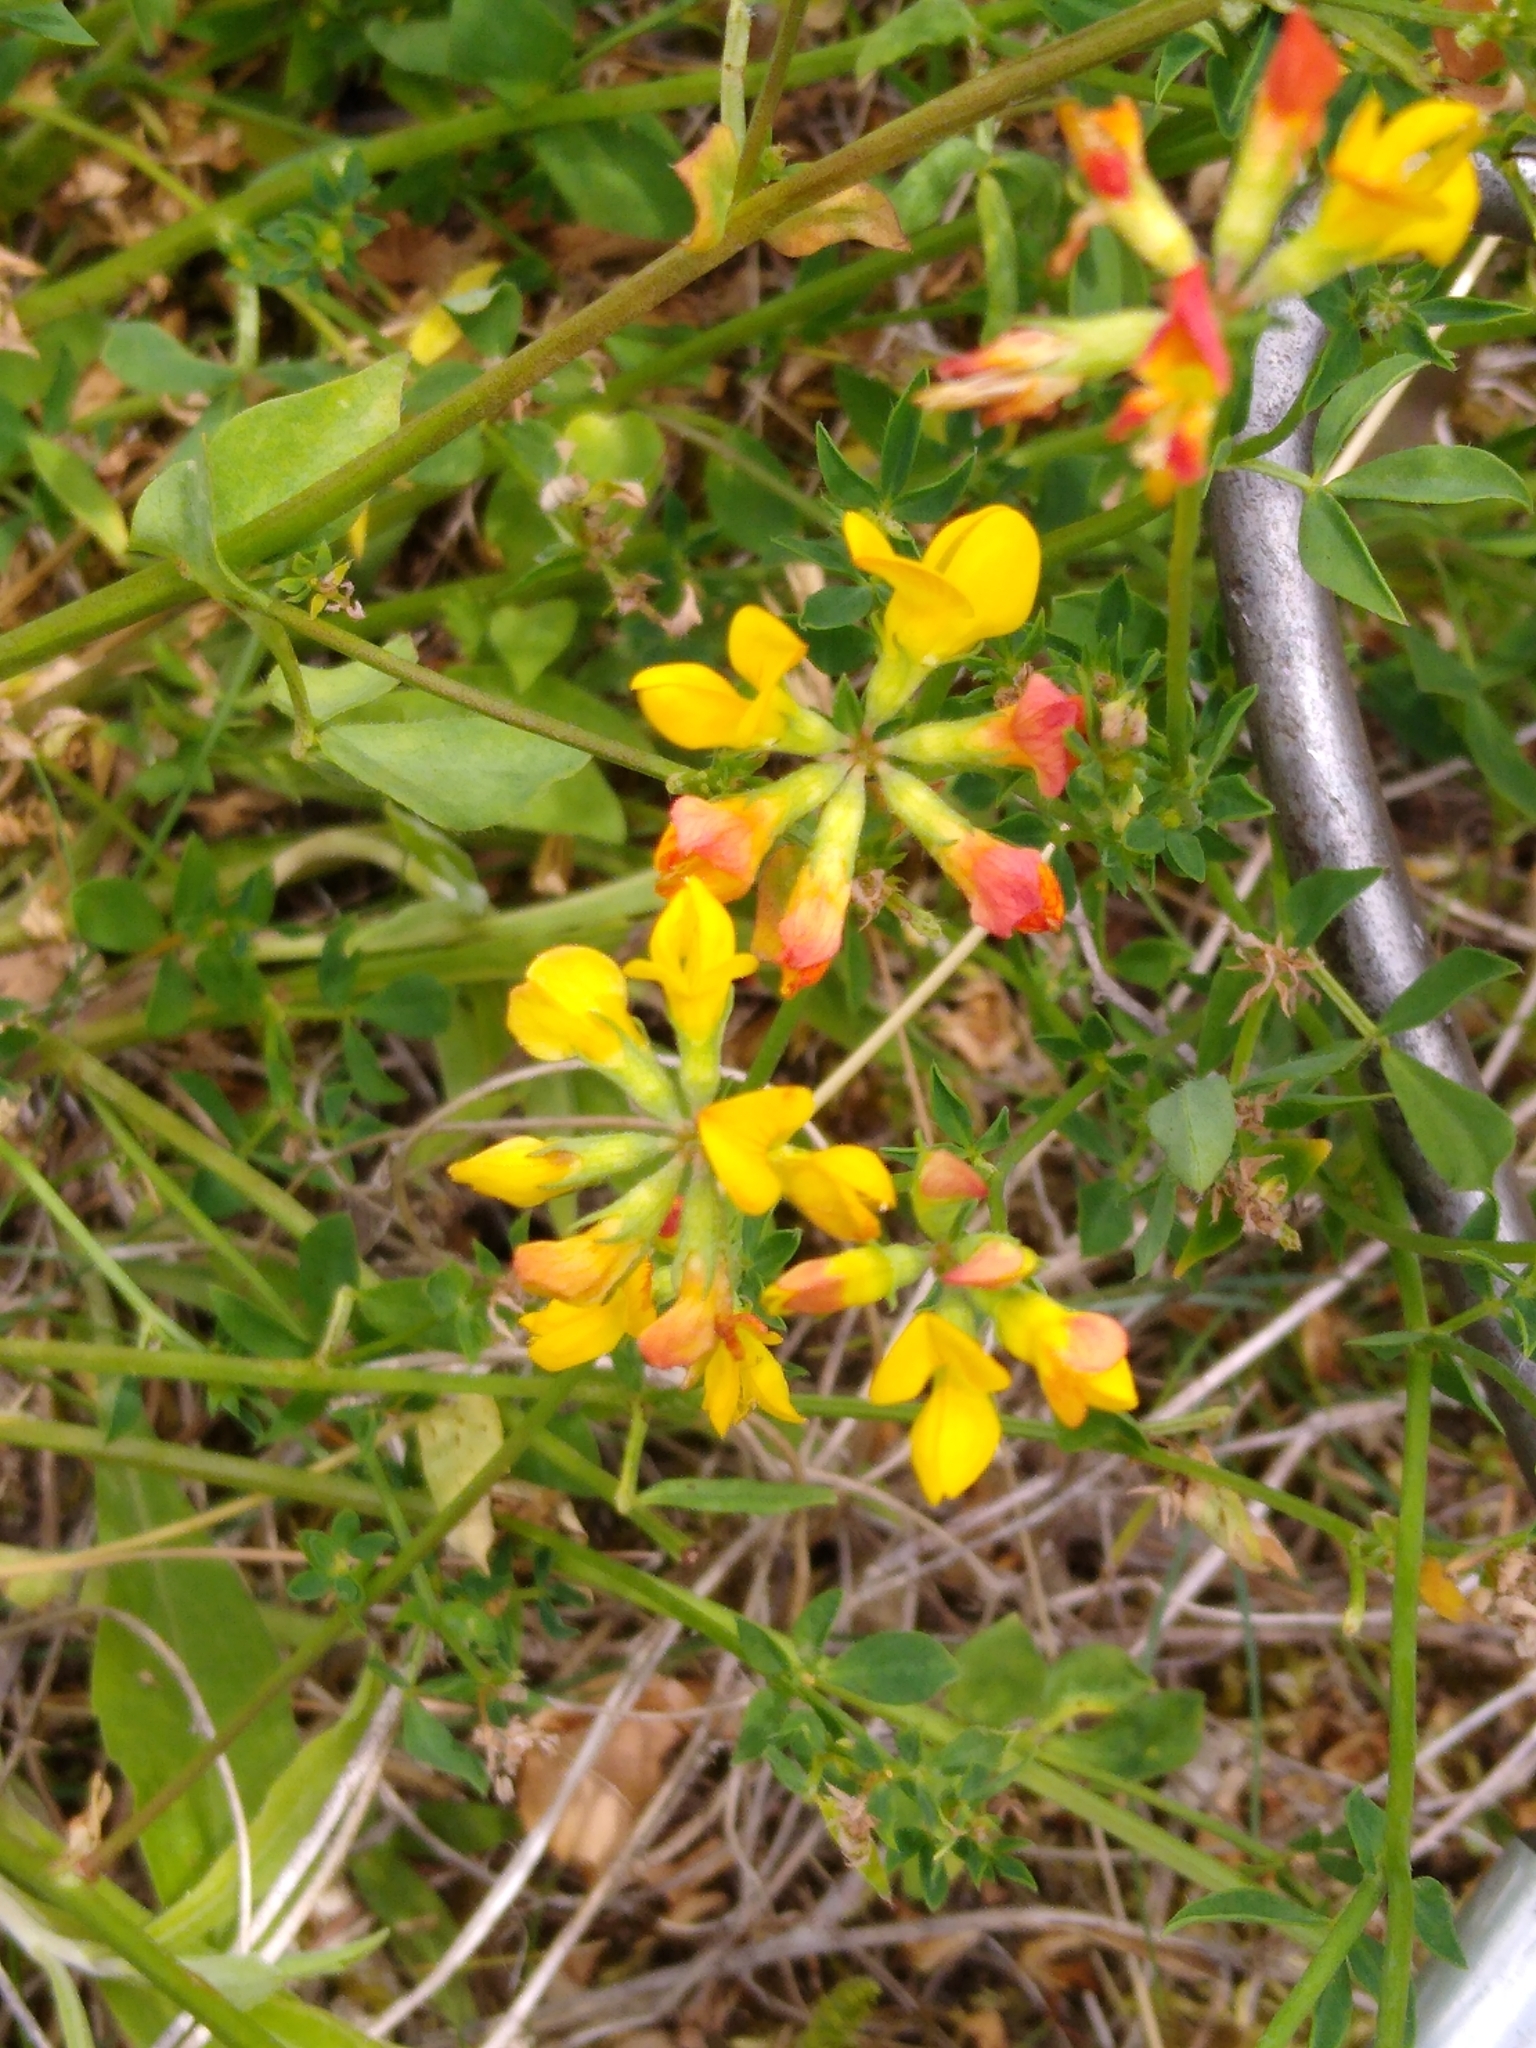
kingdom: Plantae
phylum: Tracheophyta
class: Magnoliopsida
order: Fabales
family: Fabaceae
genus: Lotus
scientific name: Lotus corniculatus
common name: Common bird's-foot-trefoil
